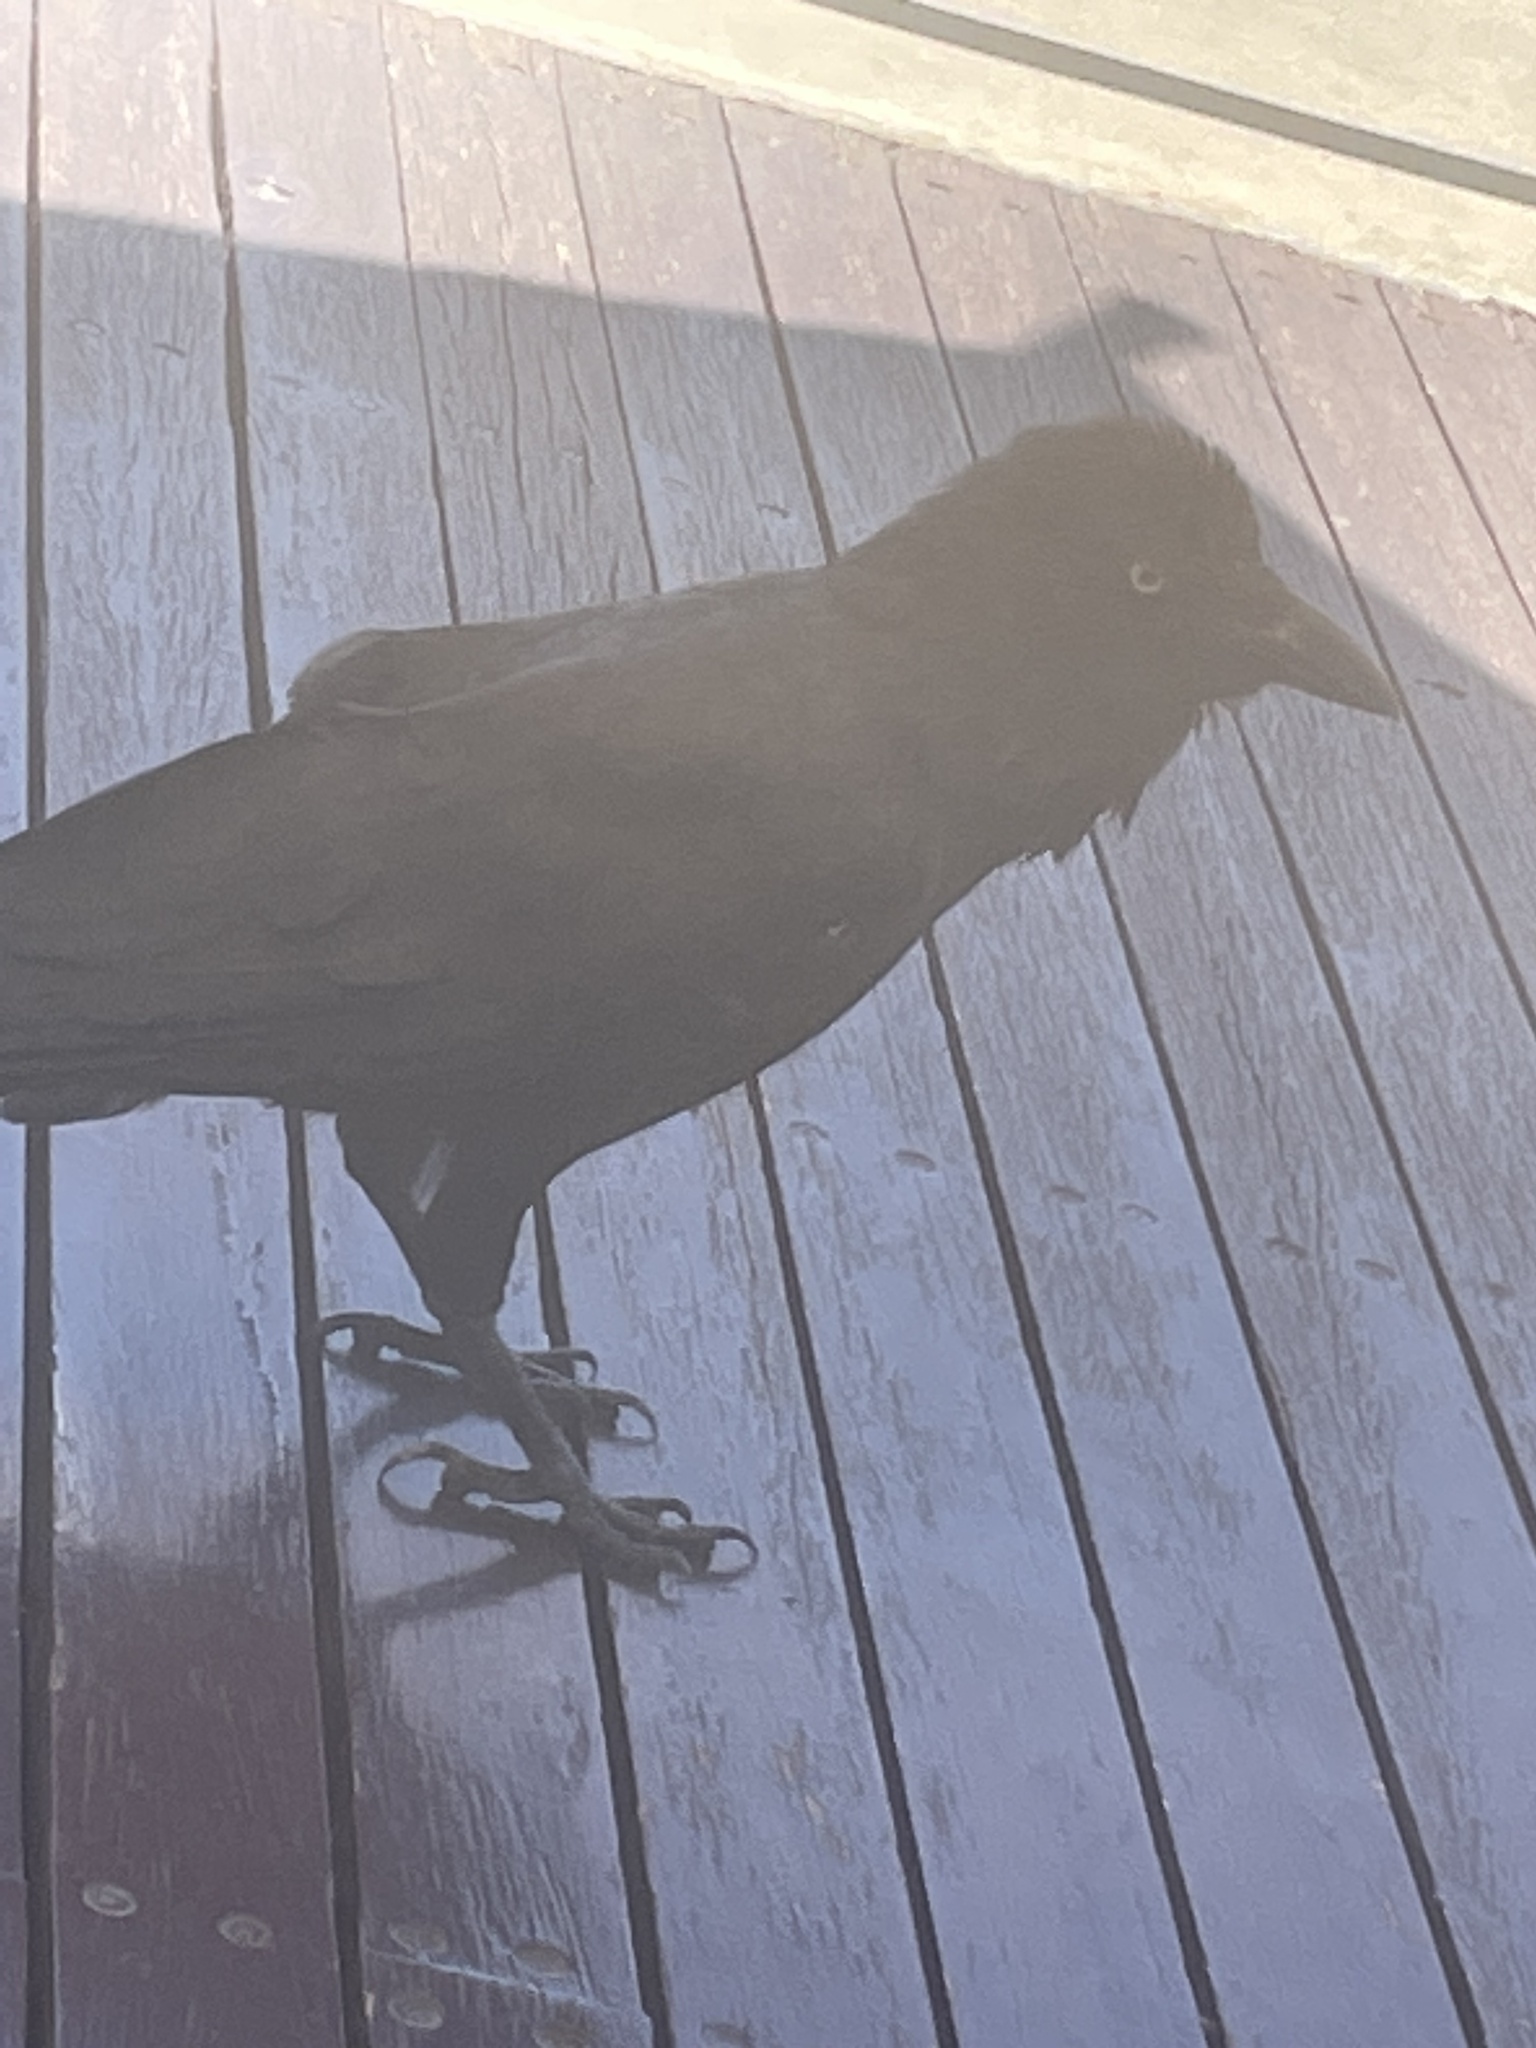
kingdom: Animalia
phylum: Chordata
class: Aves
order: Passeriformes
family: Corvidae
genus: Corvus
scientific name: Corvus coronoides
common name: Australian raven
